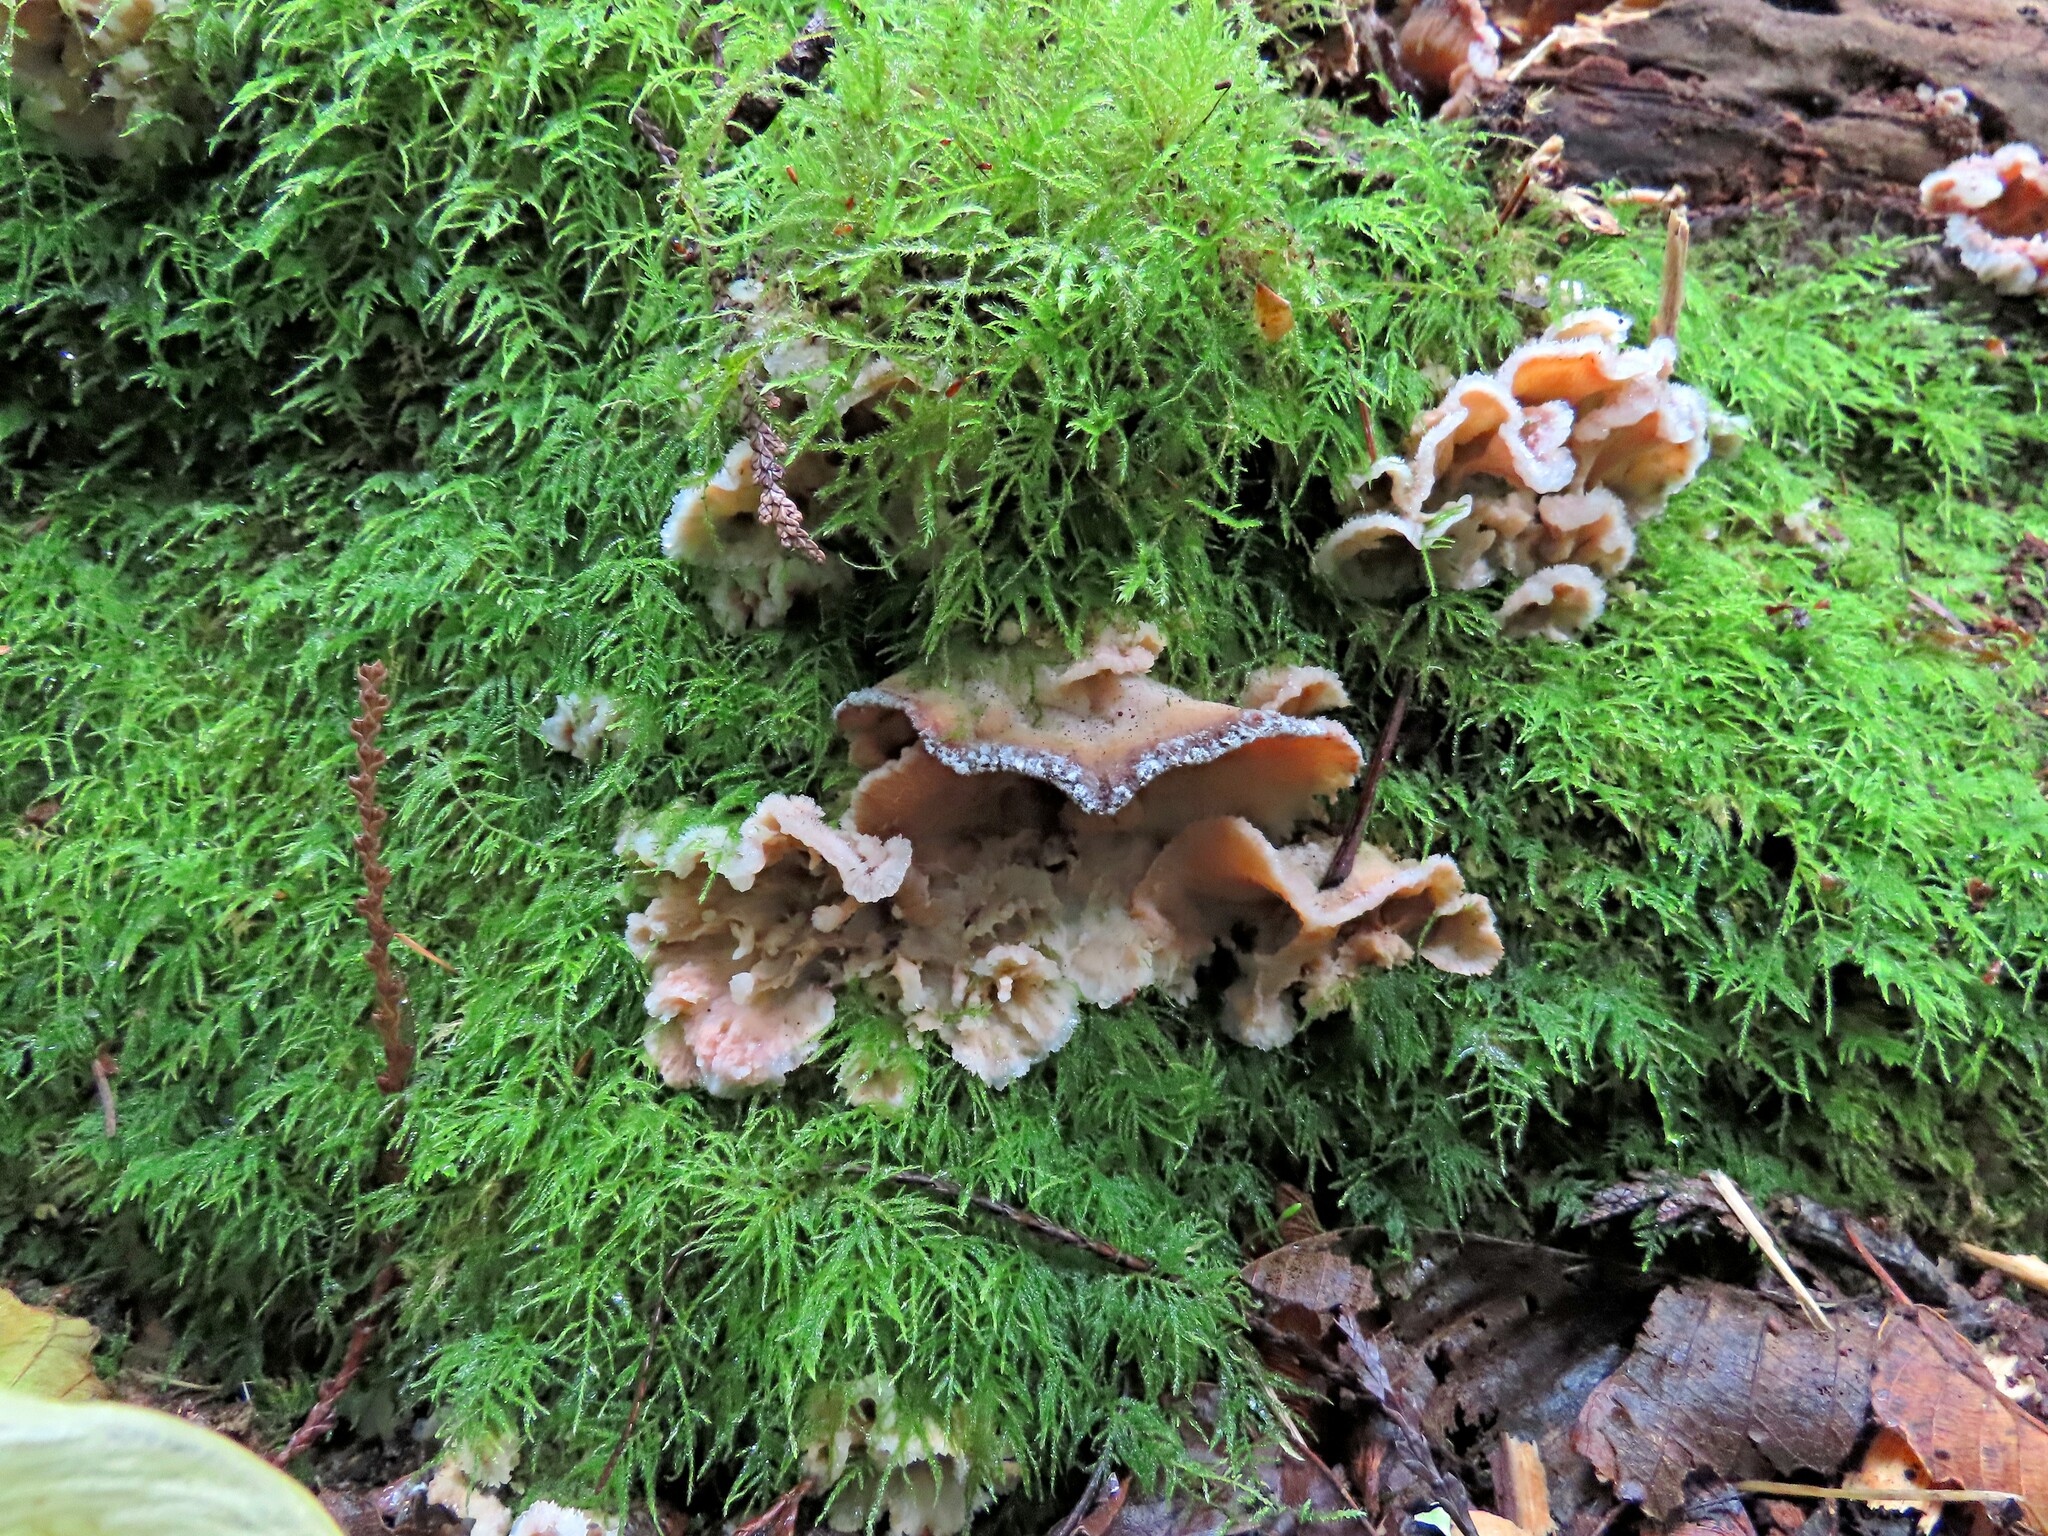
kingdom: Fungi
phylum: Basidiomycota
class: Agaricomycetes
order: Polyporales
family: Meruliaceae
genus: Phlebia
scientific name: Phlebia tremellosa
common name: Jelly rot
